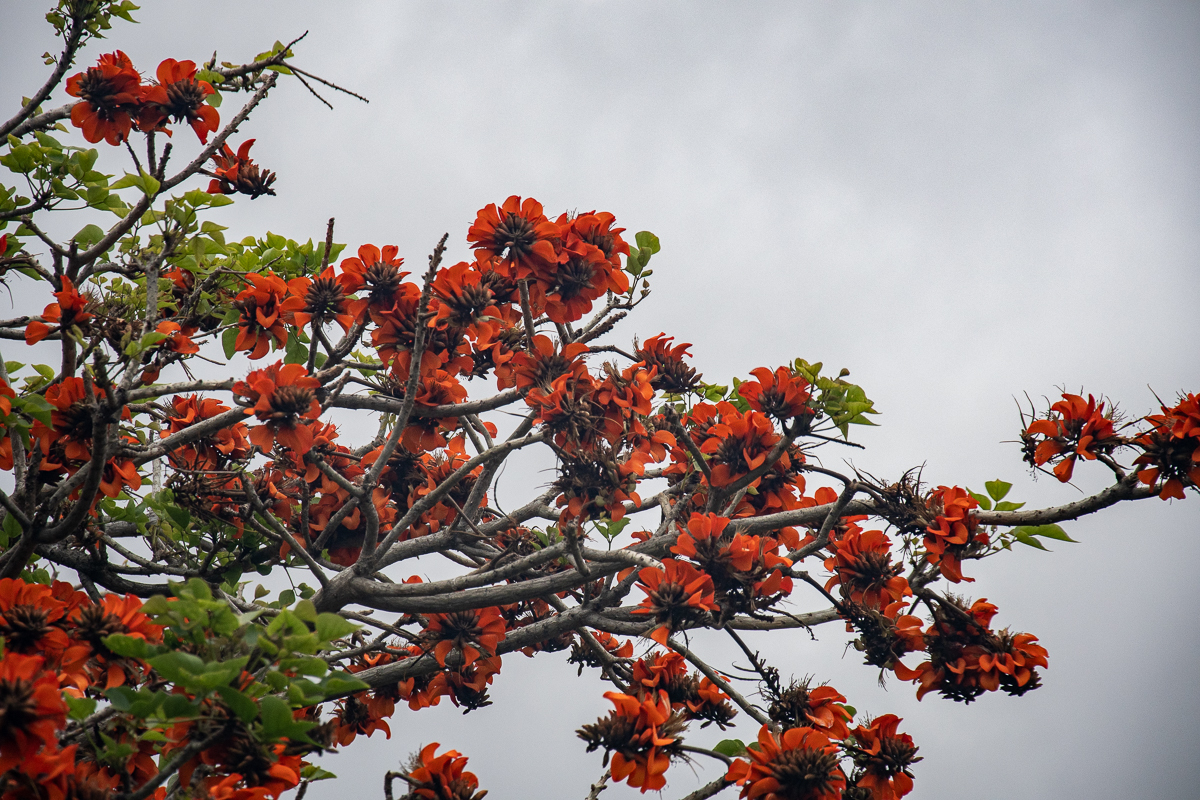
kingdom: Plantae
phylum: Tracheophyta
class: Magnoliopsida
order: Fabales
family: Fabaceae
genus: Erythrina
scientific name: Erythrina caffra
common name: Coast coral tree
